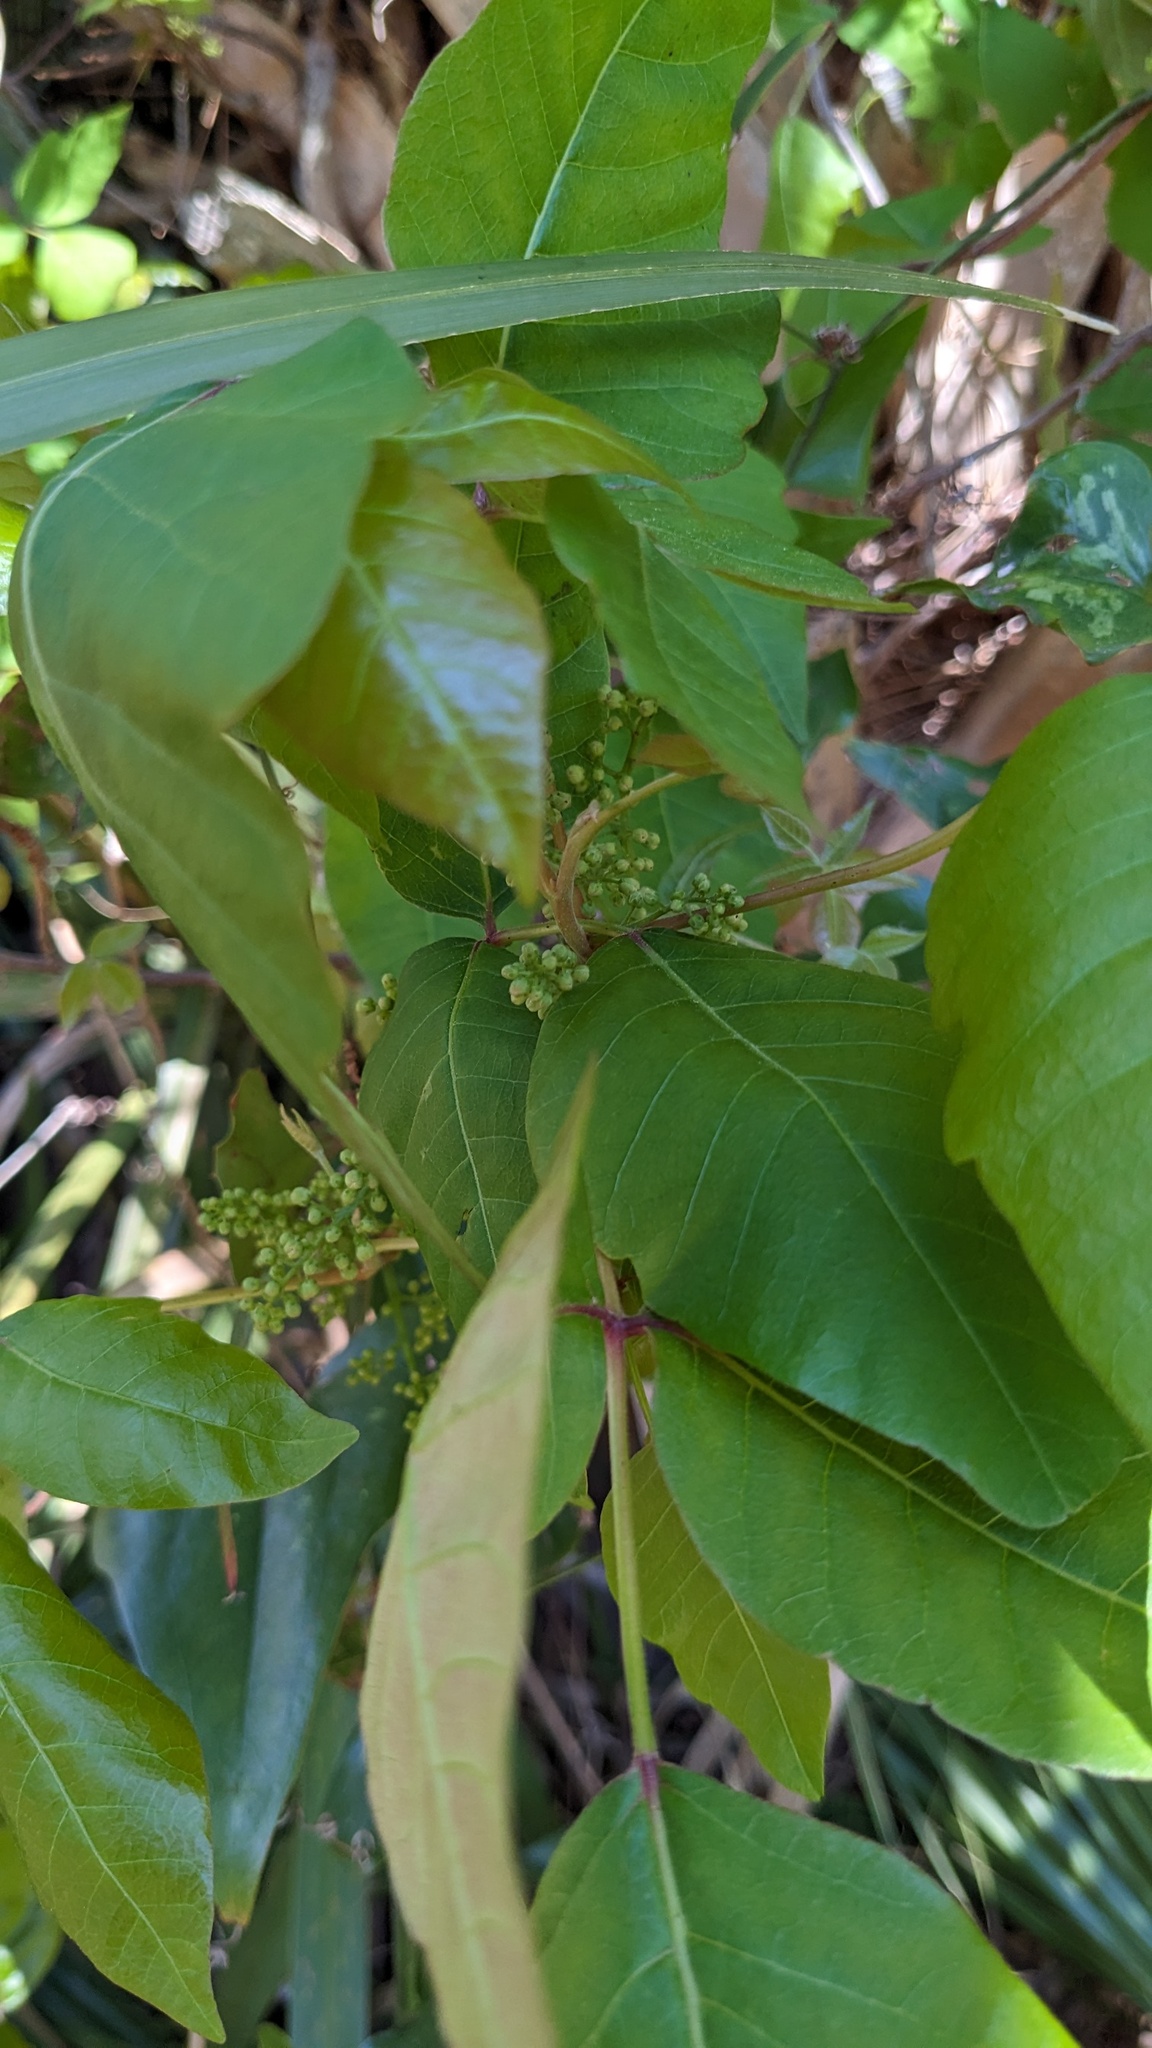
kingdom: Plantae
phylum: Tracheophyta
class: Magnoliopsida
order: Sapindales
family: Anacardiaceae
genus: Toxicodendron
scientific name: Toxicodendron radicans
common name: Poison ivy
